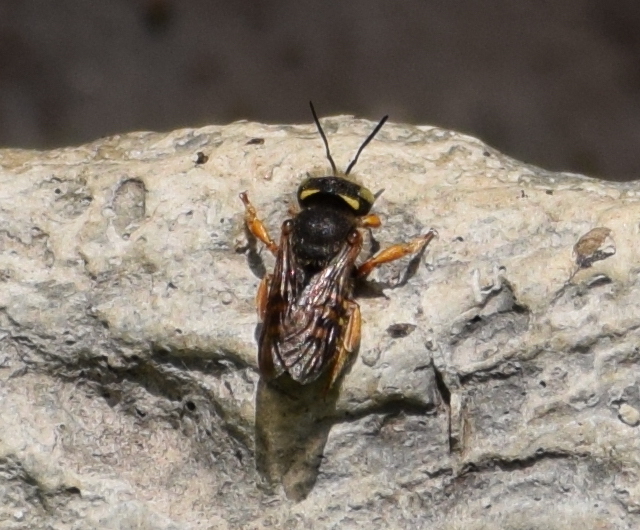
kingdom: Animalia
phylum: Arthropoda
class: Insecta
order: Hymenoptera
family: Megachilidae
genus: Anthidium
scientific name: Anthidium oblongatum
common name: Oblong wool carder bee
